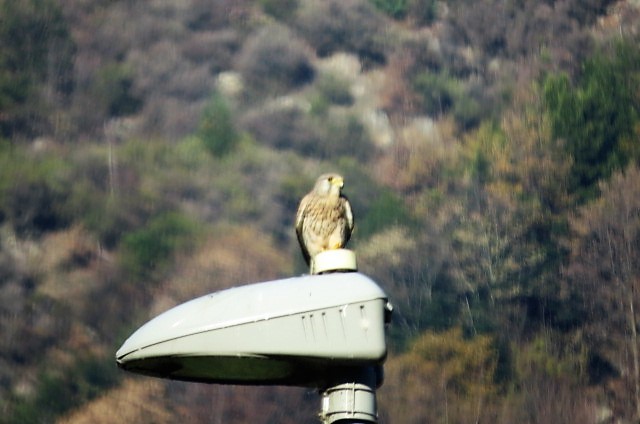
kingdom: Animalia
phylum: Chordata
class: Aves
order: Falconiformes
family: Falconidae
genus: Falco
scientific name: Falco tinnunculus
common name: Common kestrel
